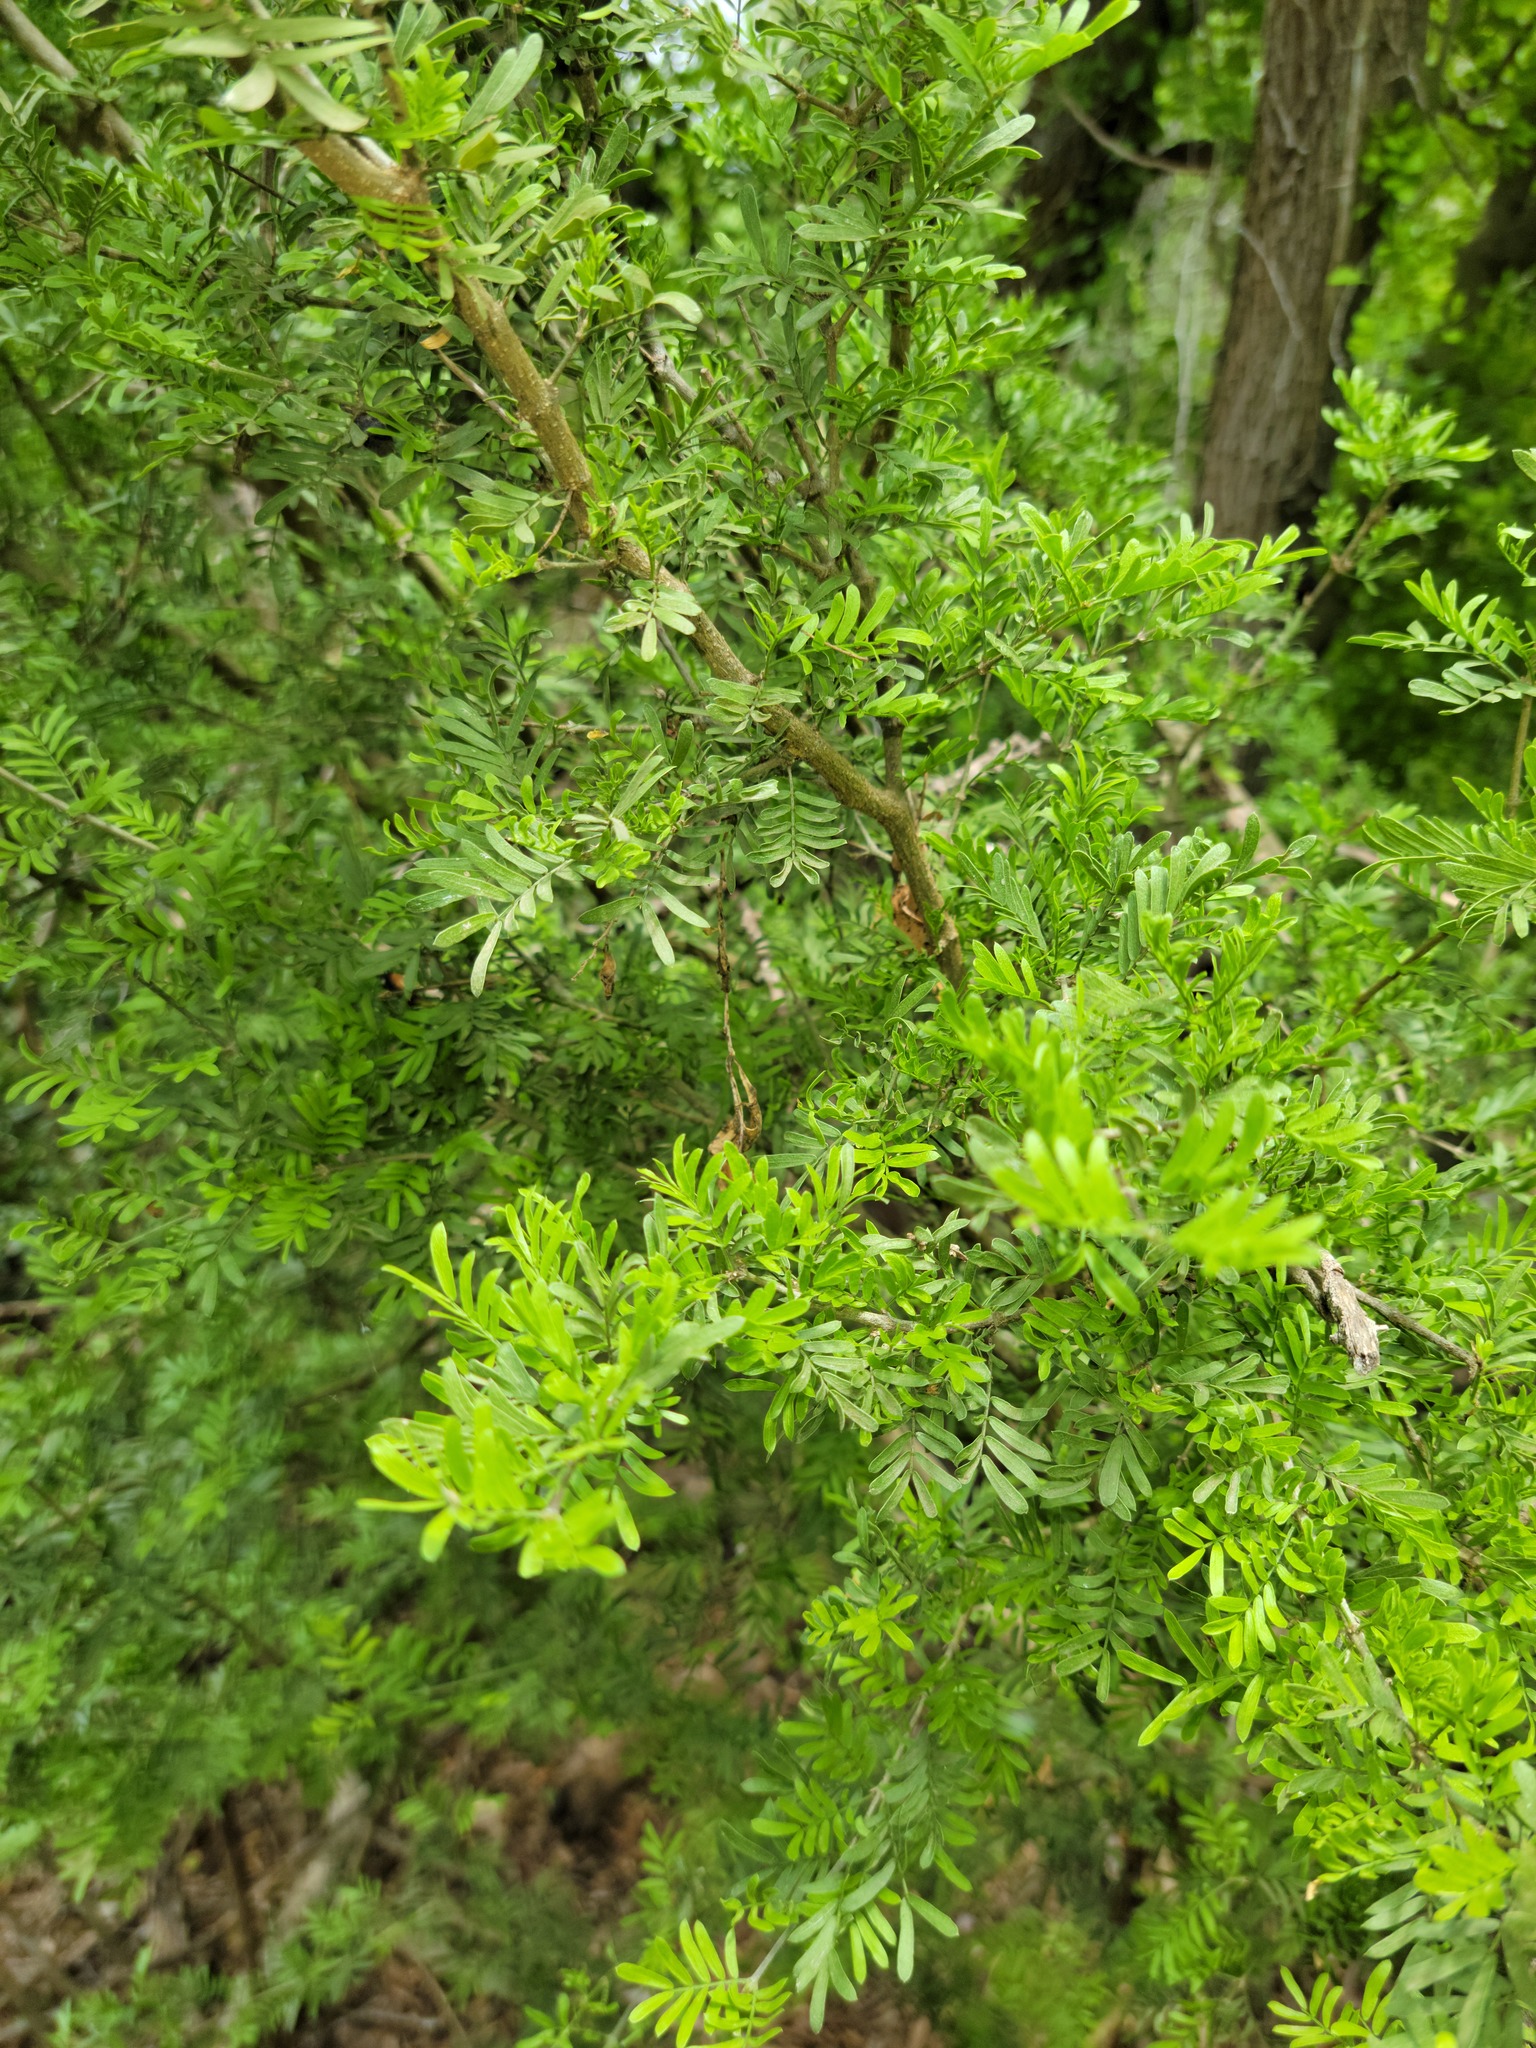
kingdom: Plantae
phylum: Tracheophyta
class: Magnoliopsida
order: Zygophyllales
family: Zygophyllaceae
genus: Porlieria
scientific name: Porlieria angustifolia
